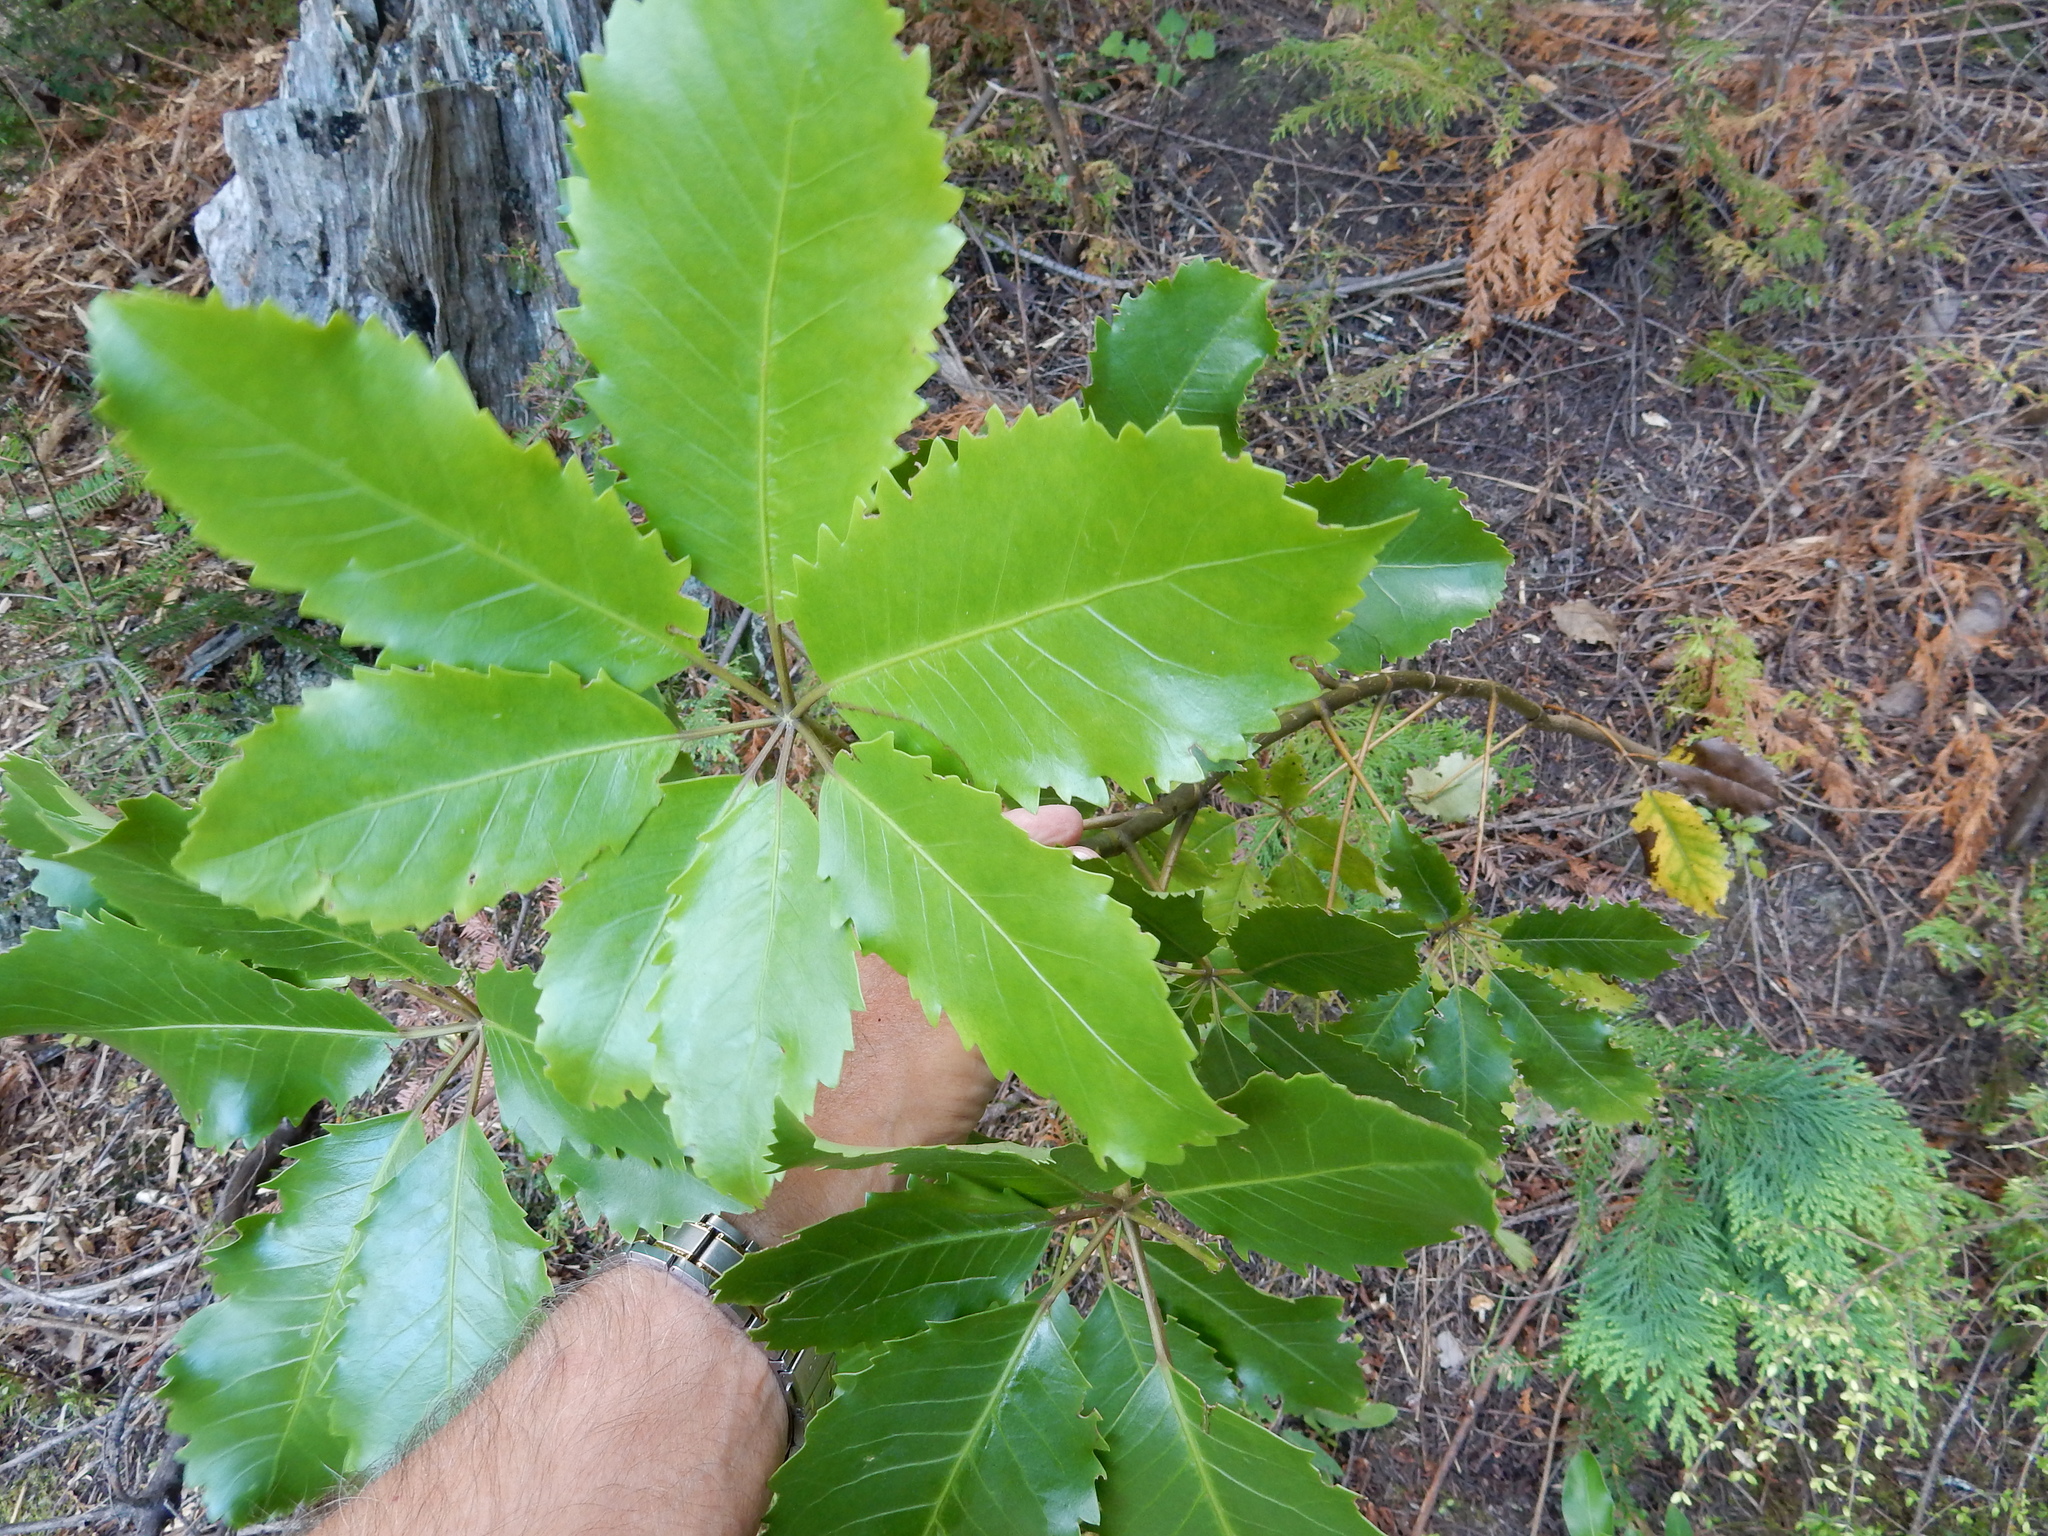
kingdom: Plantae
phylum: Tracheophyta
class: Magnoliopsida
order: Apiales
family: Araliaceae
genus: Neopanax
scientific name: Neopanax arboreus
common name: Five-fingers
